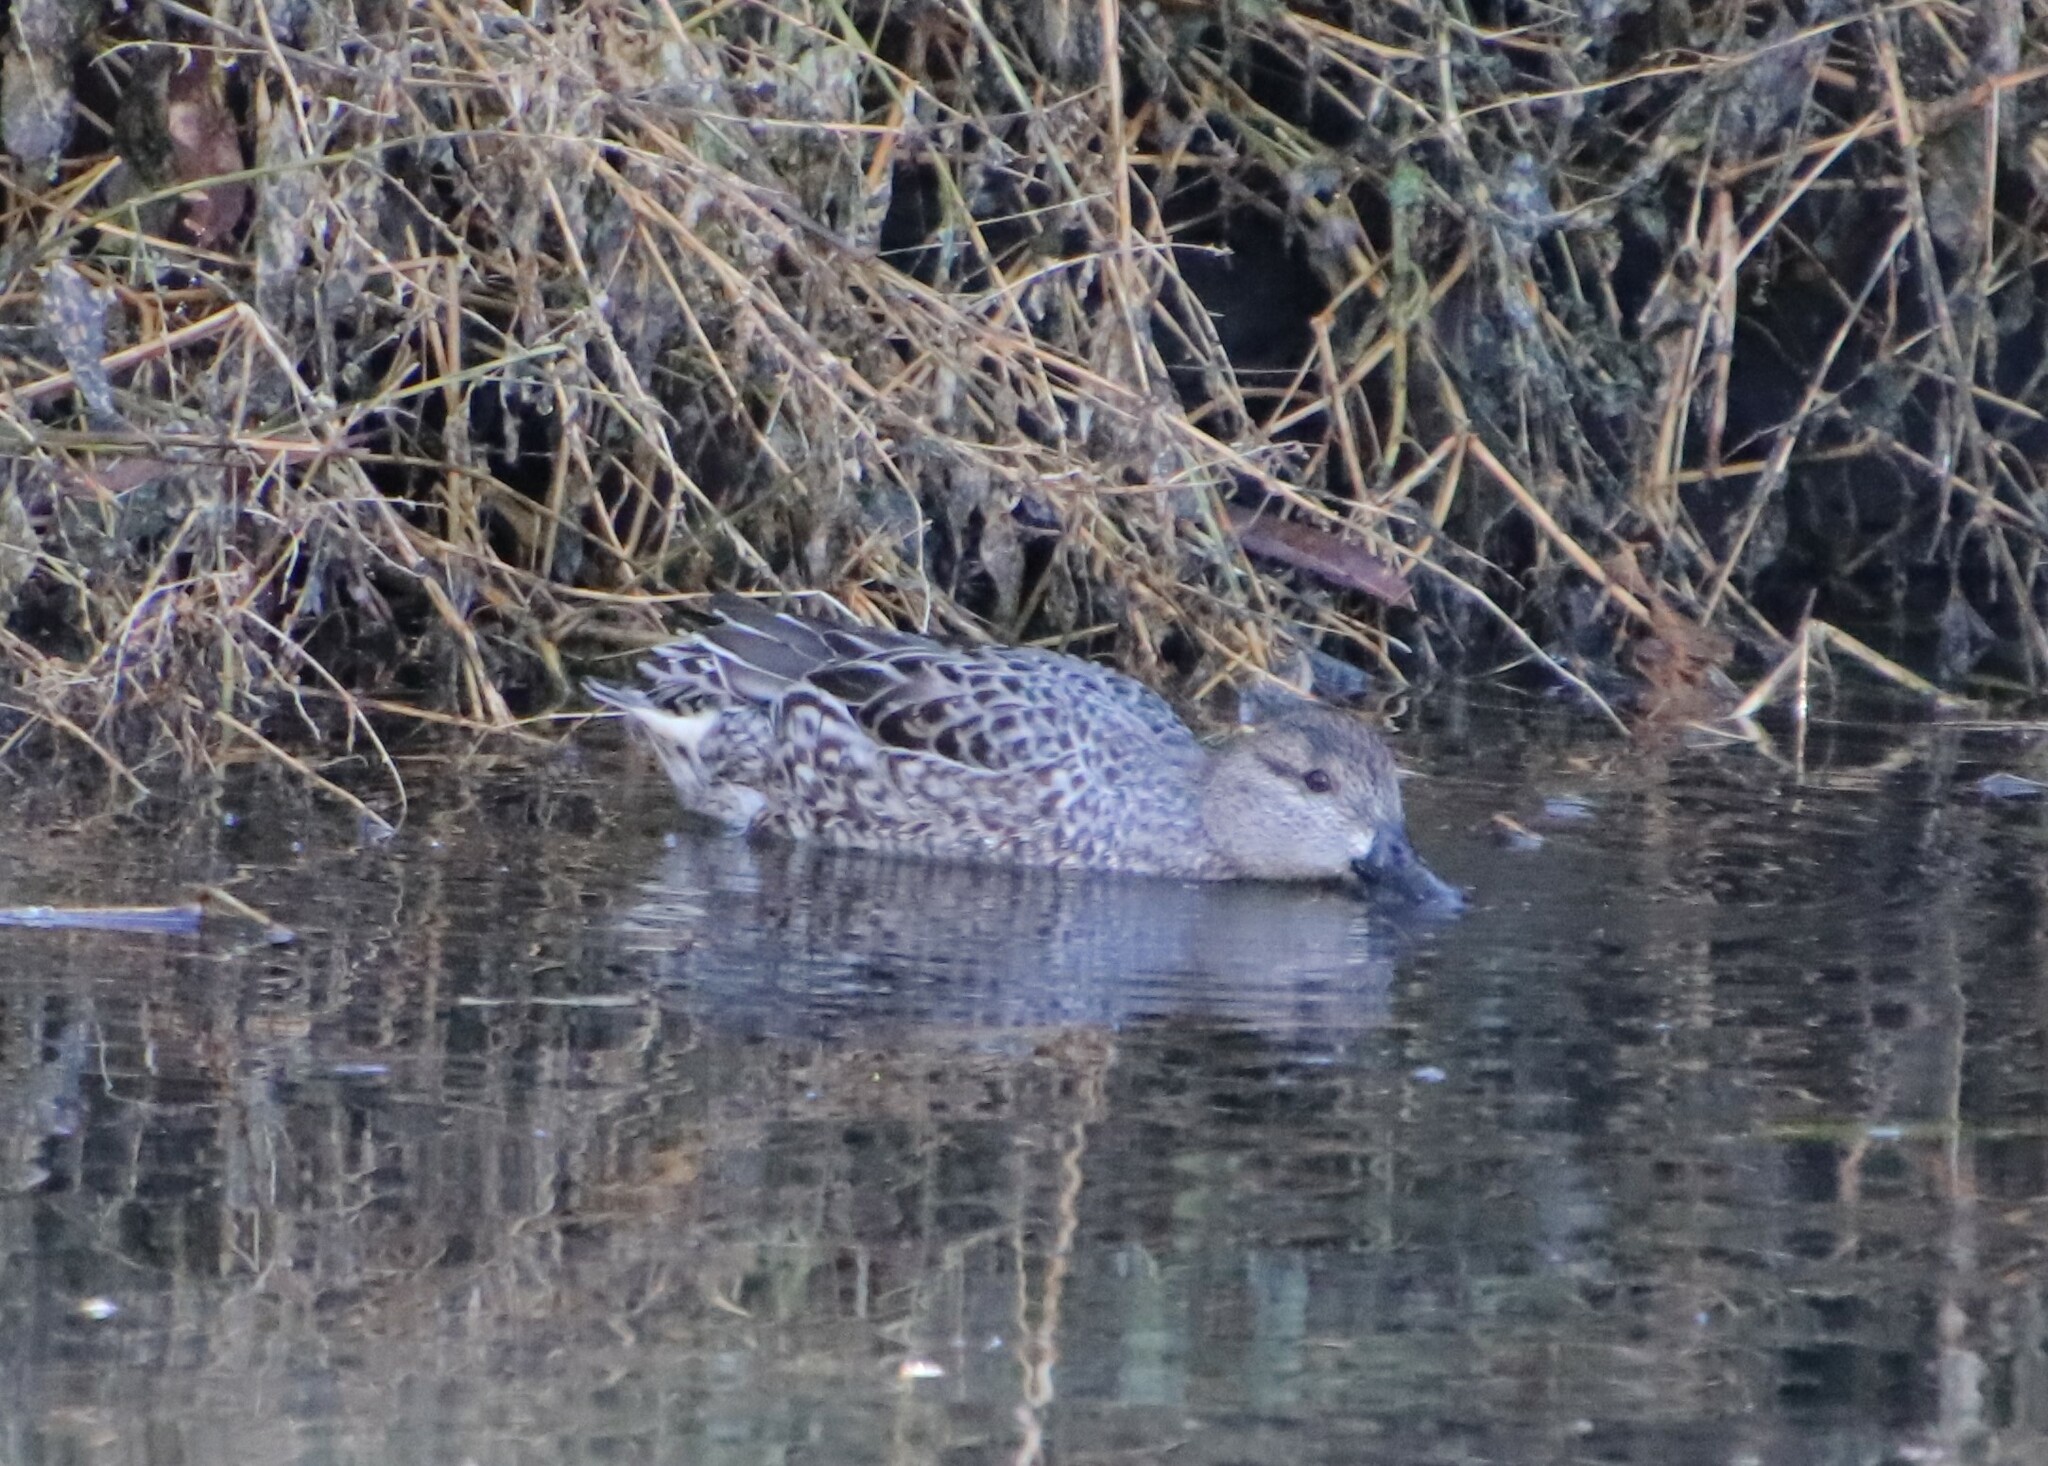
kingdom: Animalia
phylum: Chordata
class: Aves
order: Anseriformes
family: Anatidae
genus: Anas
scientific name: Anas crecca
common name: Eurasian teal
